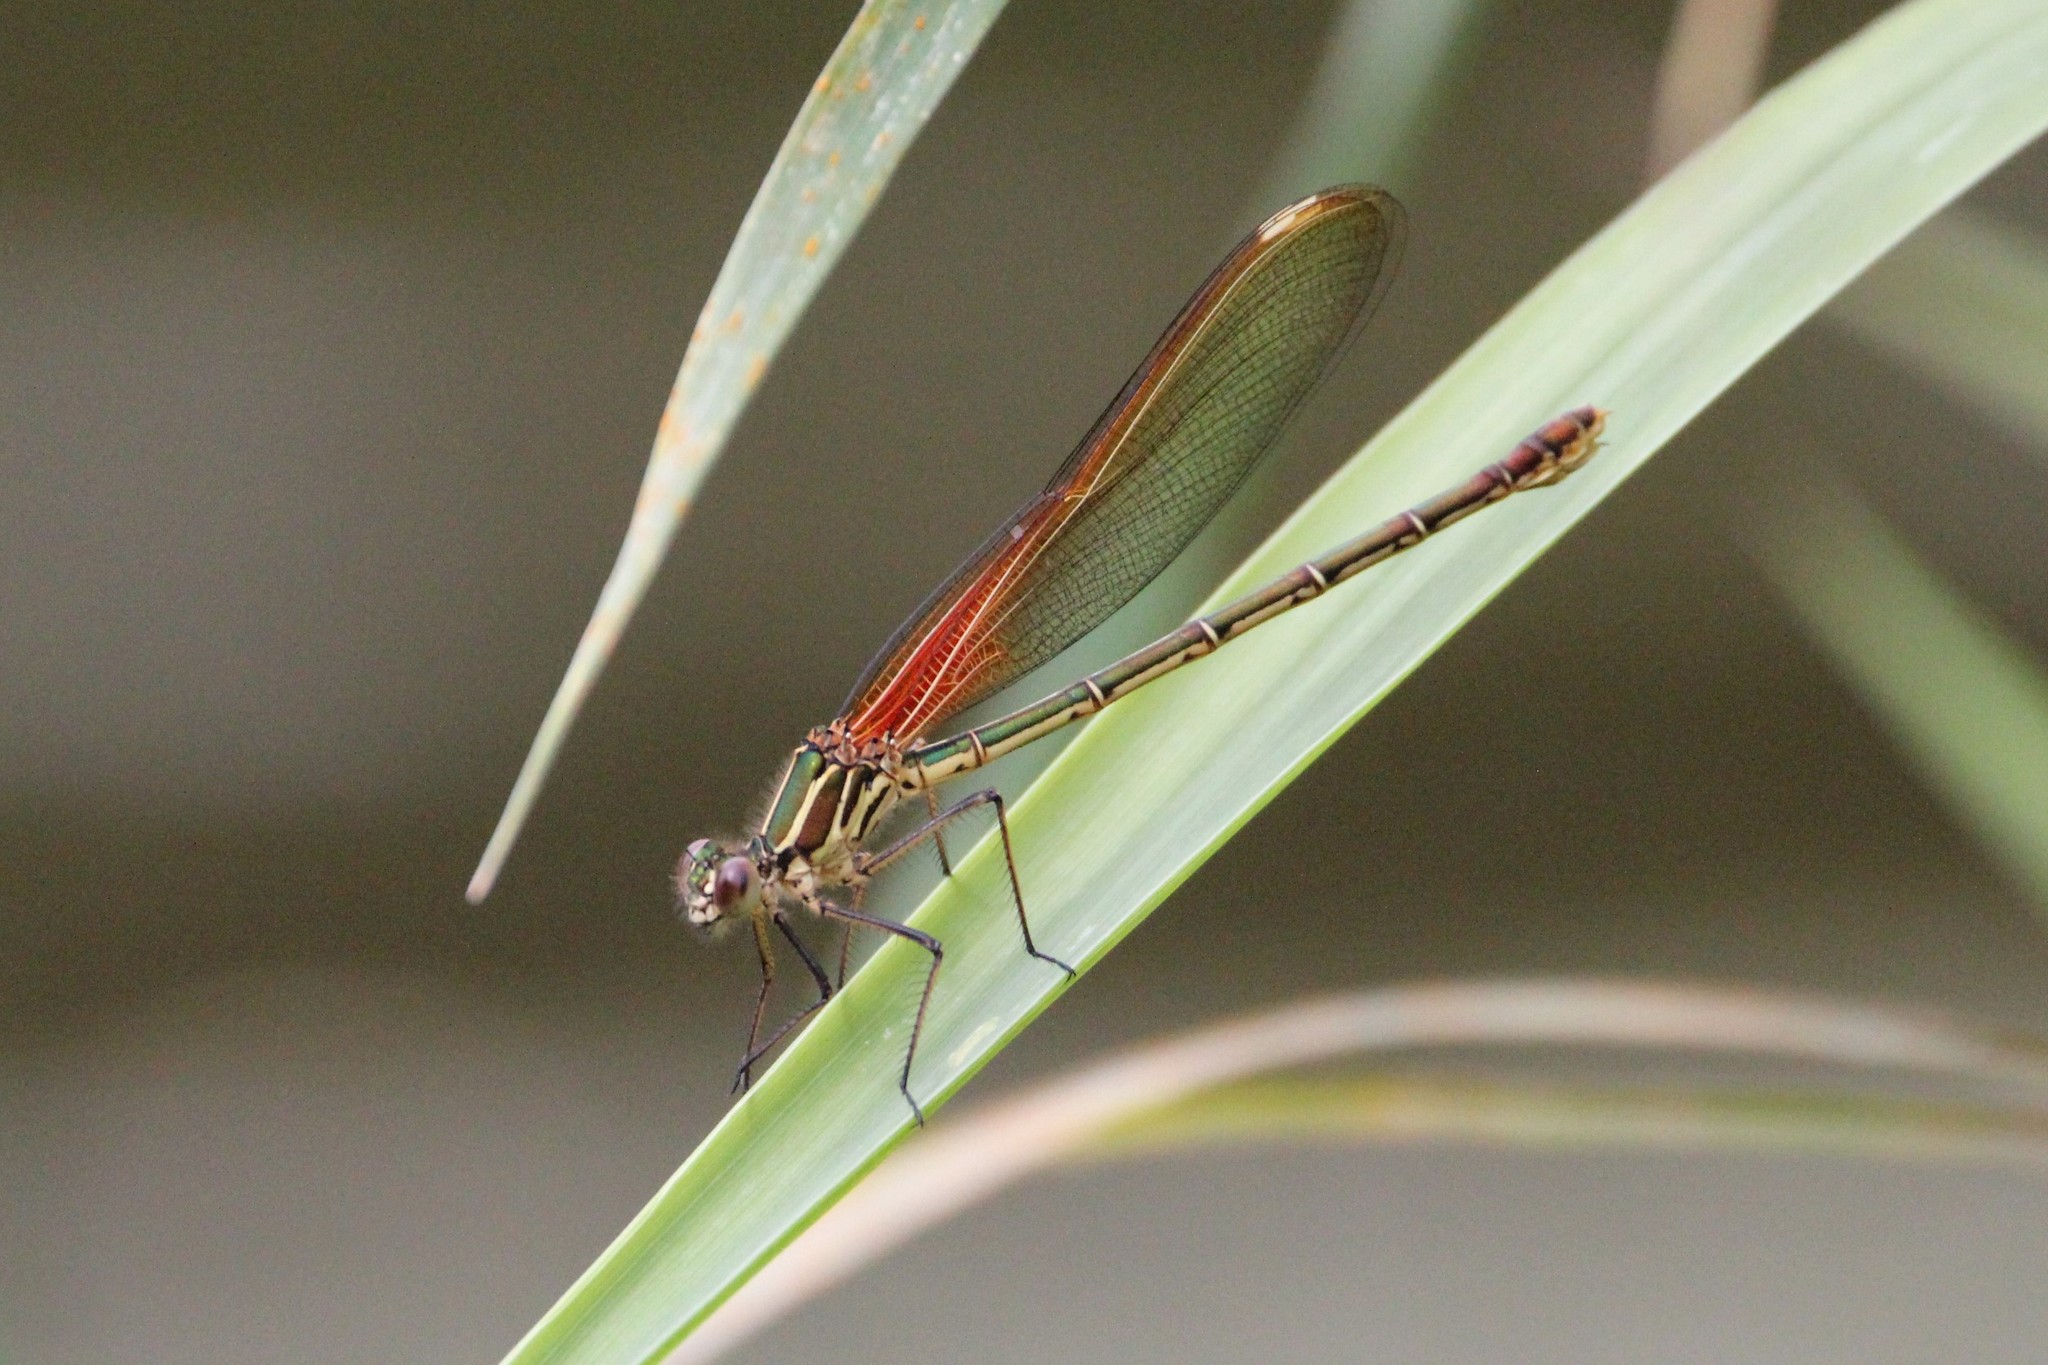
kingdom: Animalia
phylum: Arthropoda
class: Insecta
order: Odonata
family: Calopterygidae
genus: Hetaerina
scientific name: Hetaerina americana
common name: American rubyspot
